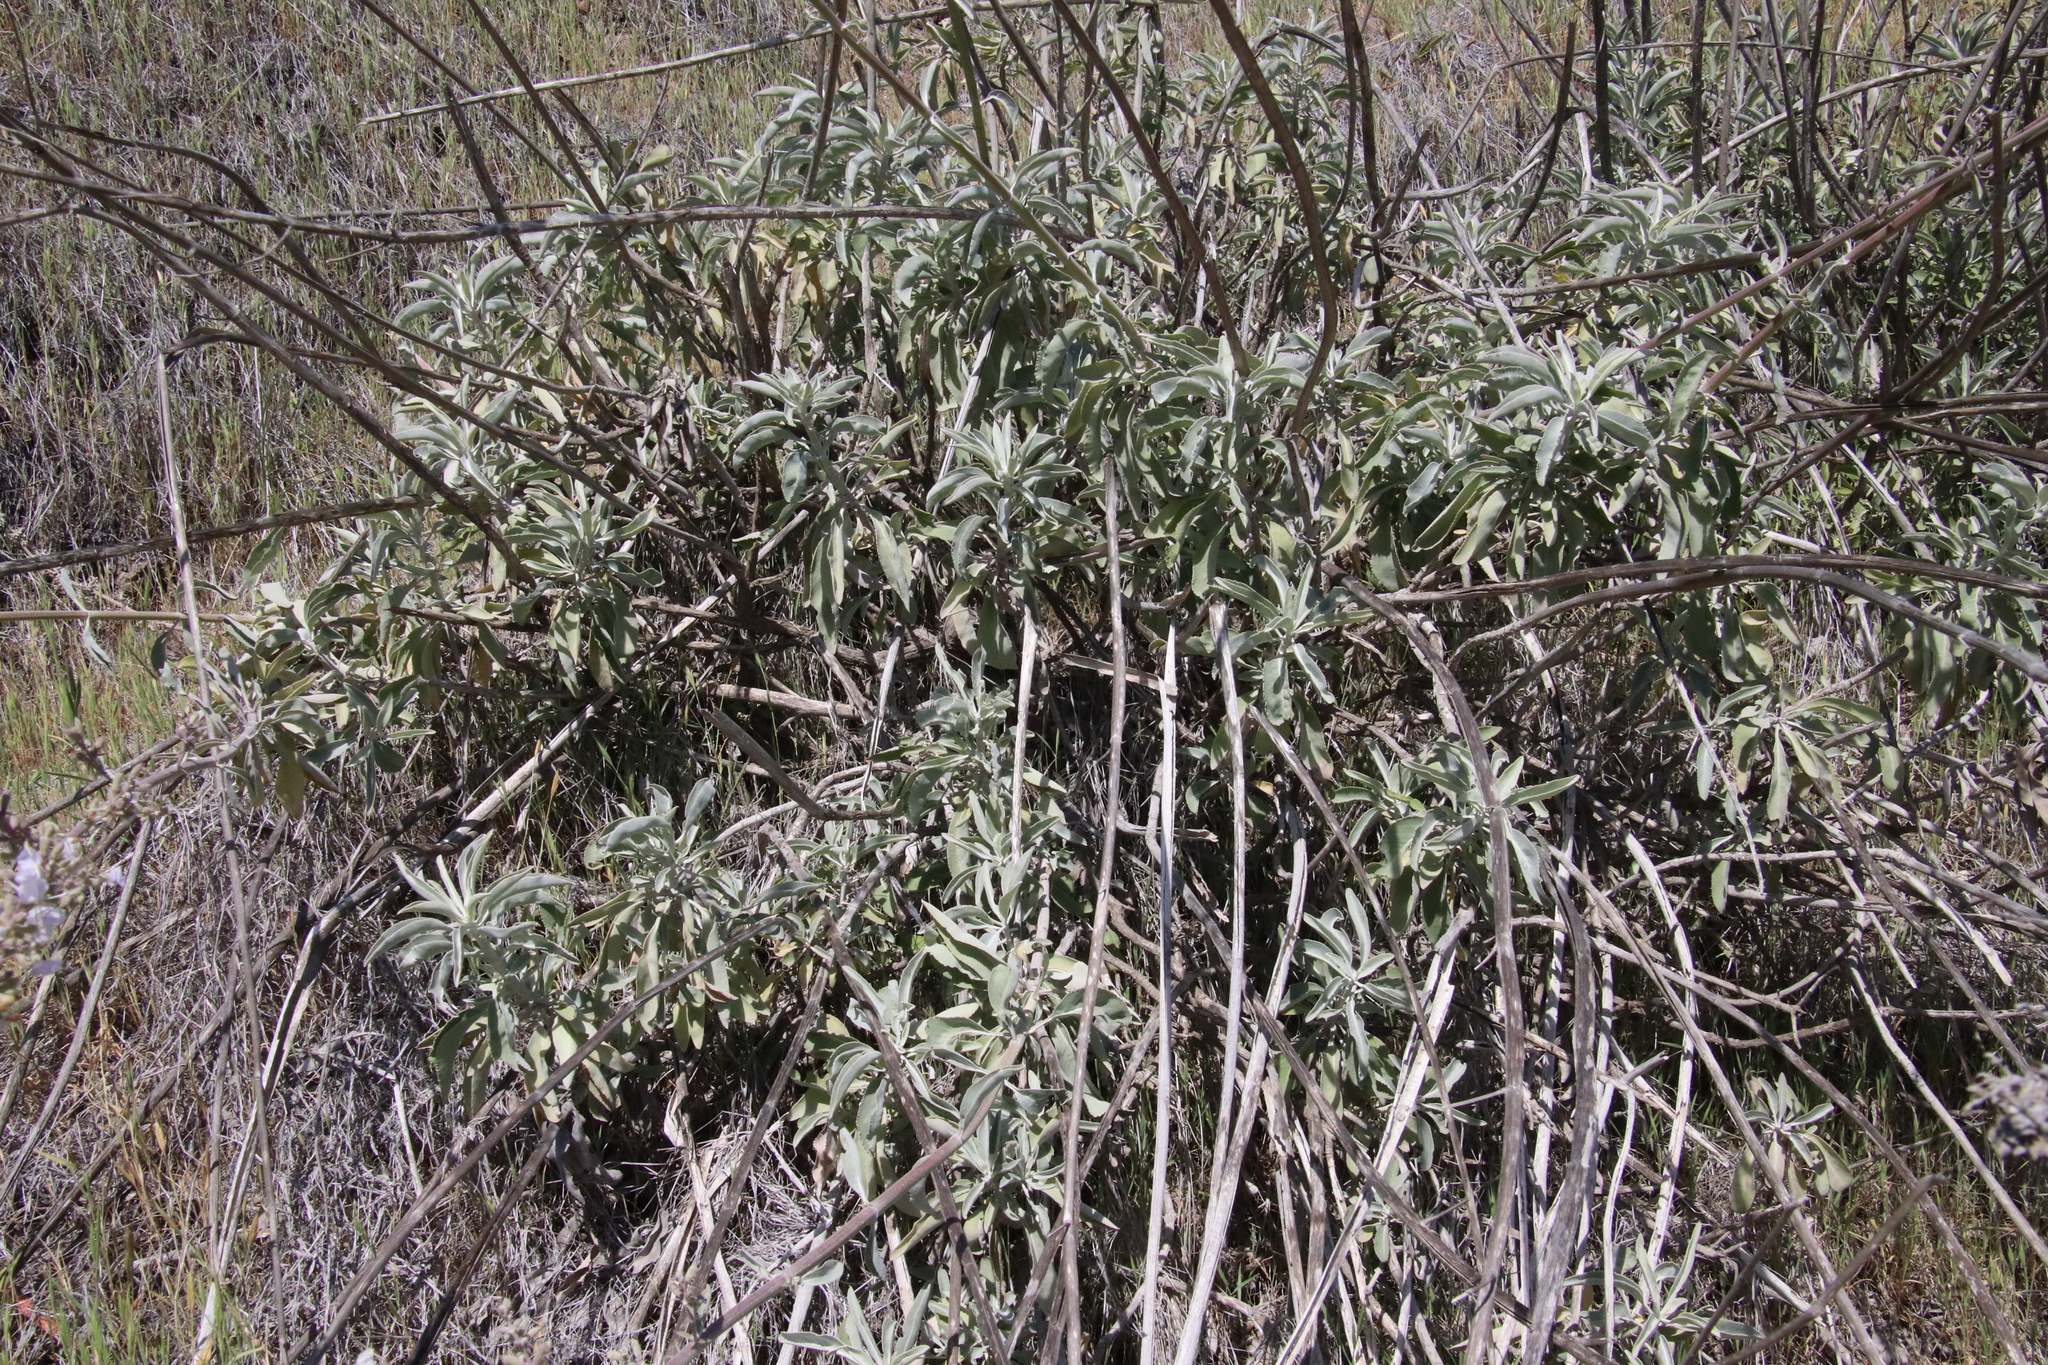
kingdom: Plantae
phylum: Tracheophyta
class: Magnoliopsida
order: Lamiales
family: Lamiaceae
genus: Salvia
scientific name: Salvia apiana
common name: White sage
